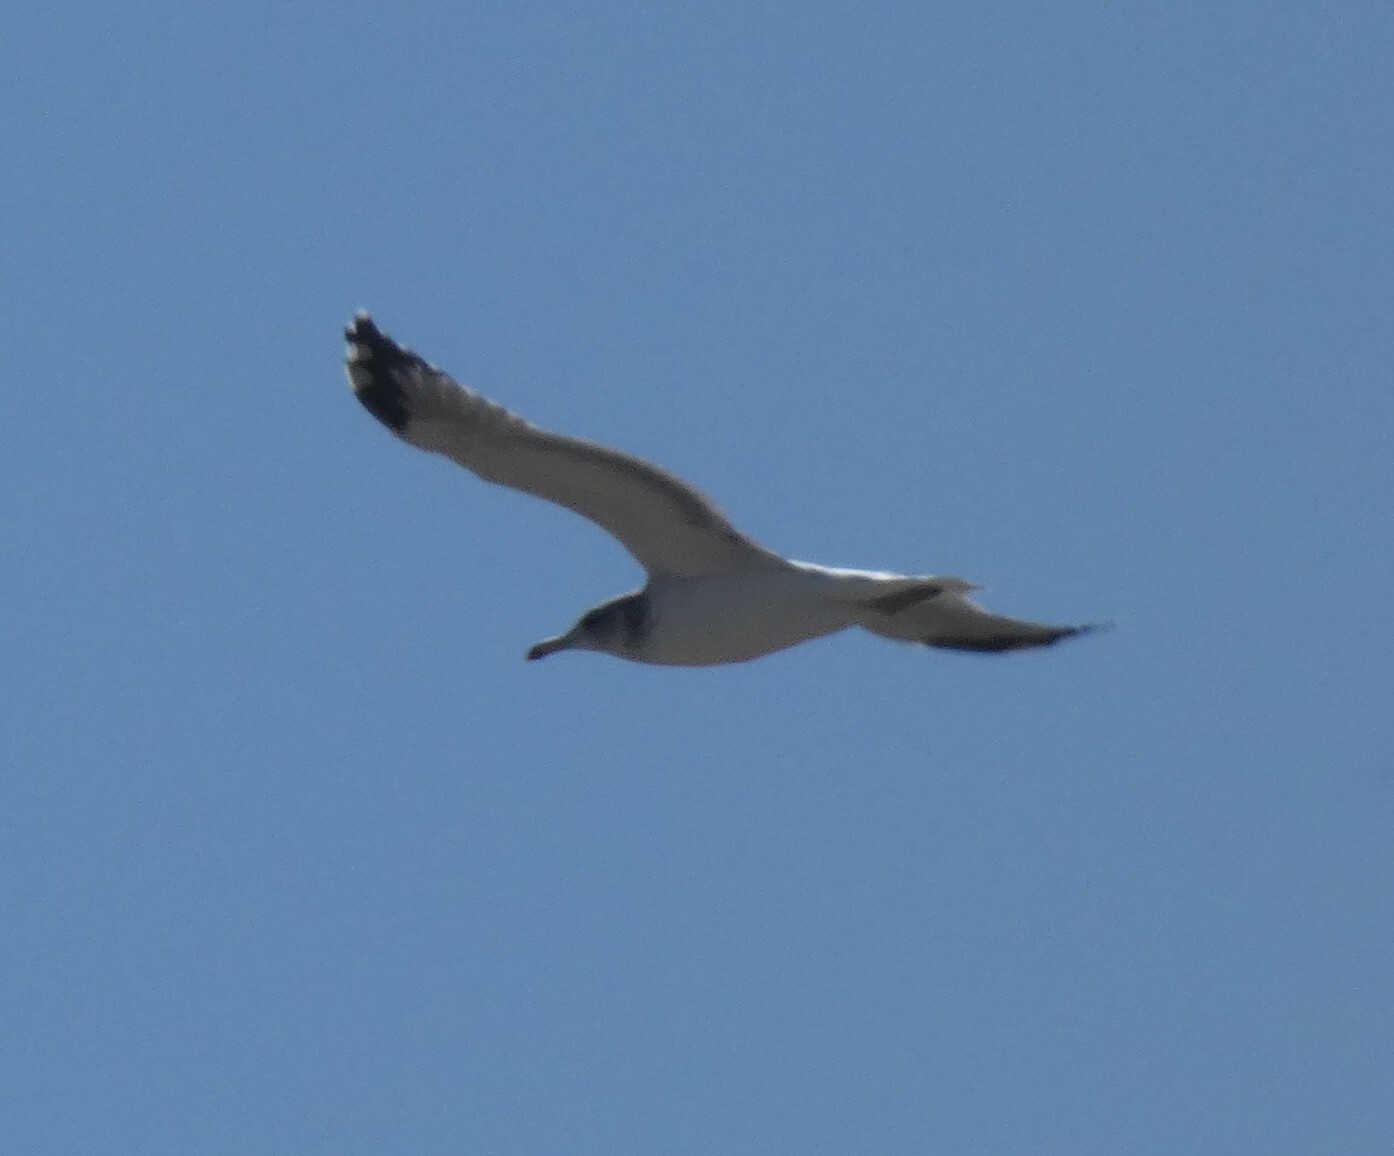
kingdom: Animalia
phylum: Chordata
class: Aves
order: Charadriiformes
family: Laridae
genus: Larus
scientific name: Larus californicus
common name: California gull
